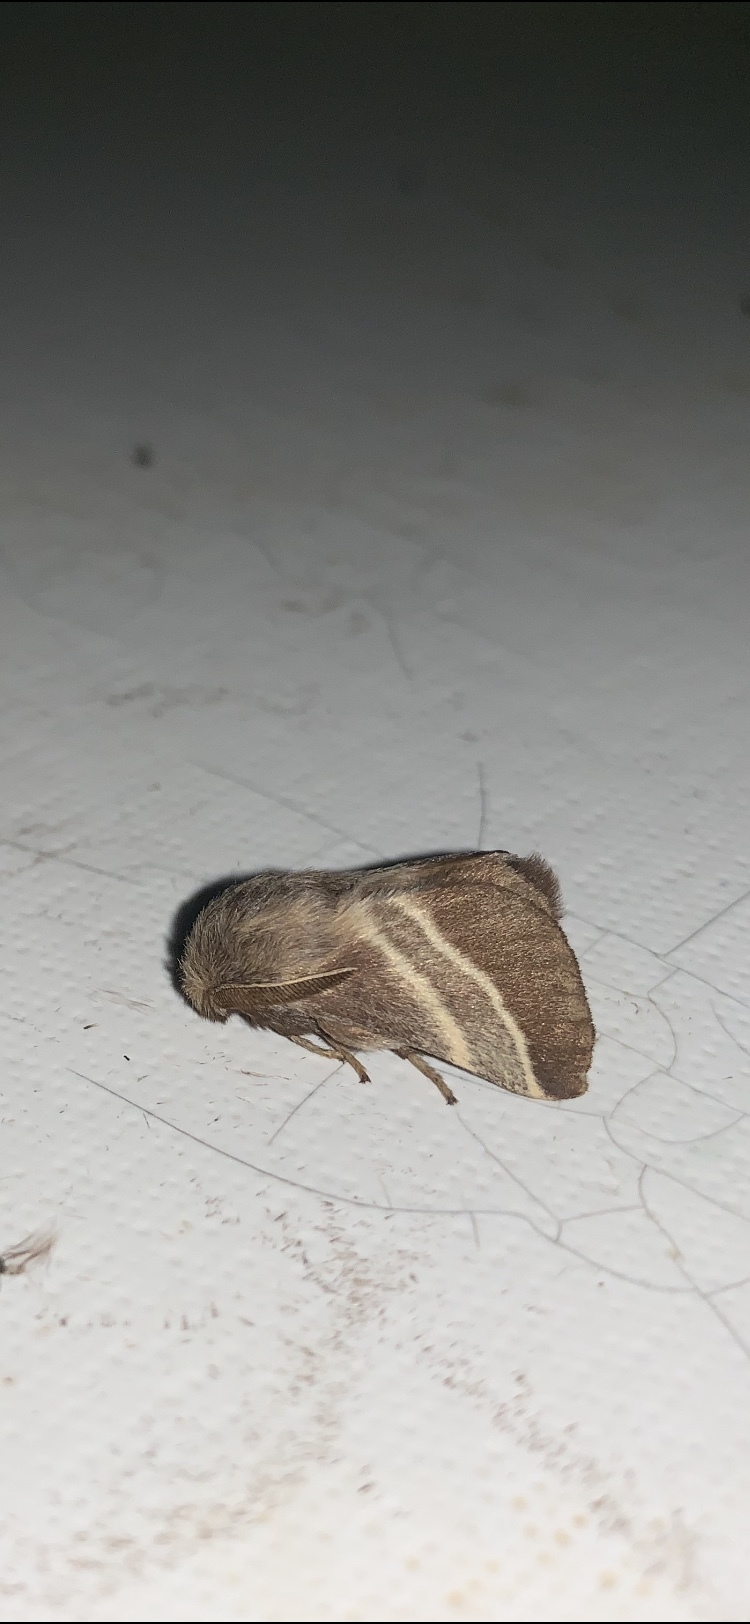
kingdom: Animalia
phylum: Arthropoda
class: Insecta
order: Lepidoptera
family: Lasiocampidae
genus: Malacosoma
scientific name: Malacosoma americana
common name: Eastern tent caterpillar moth
